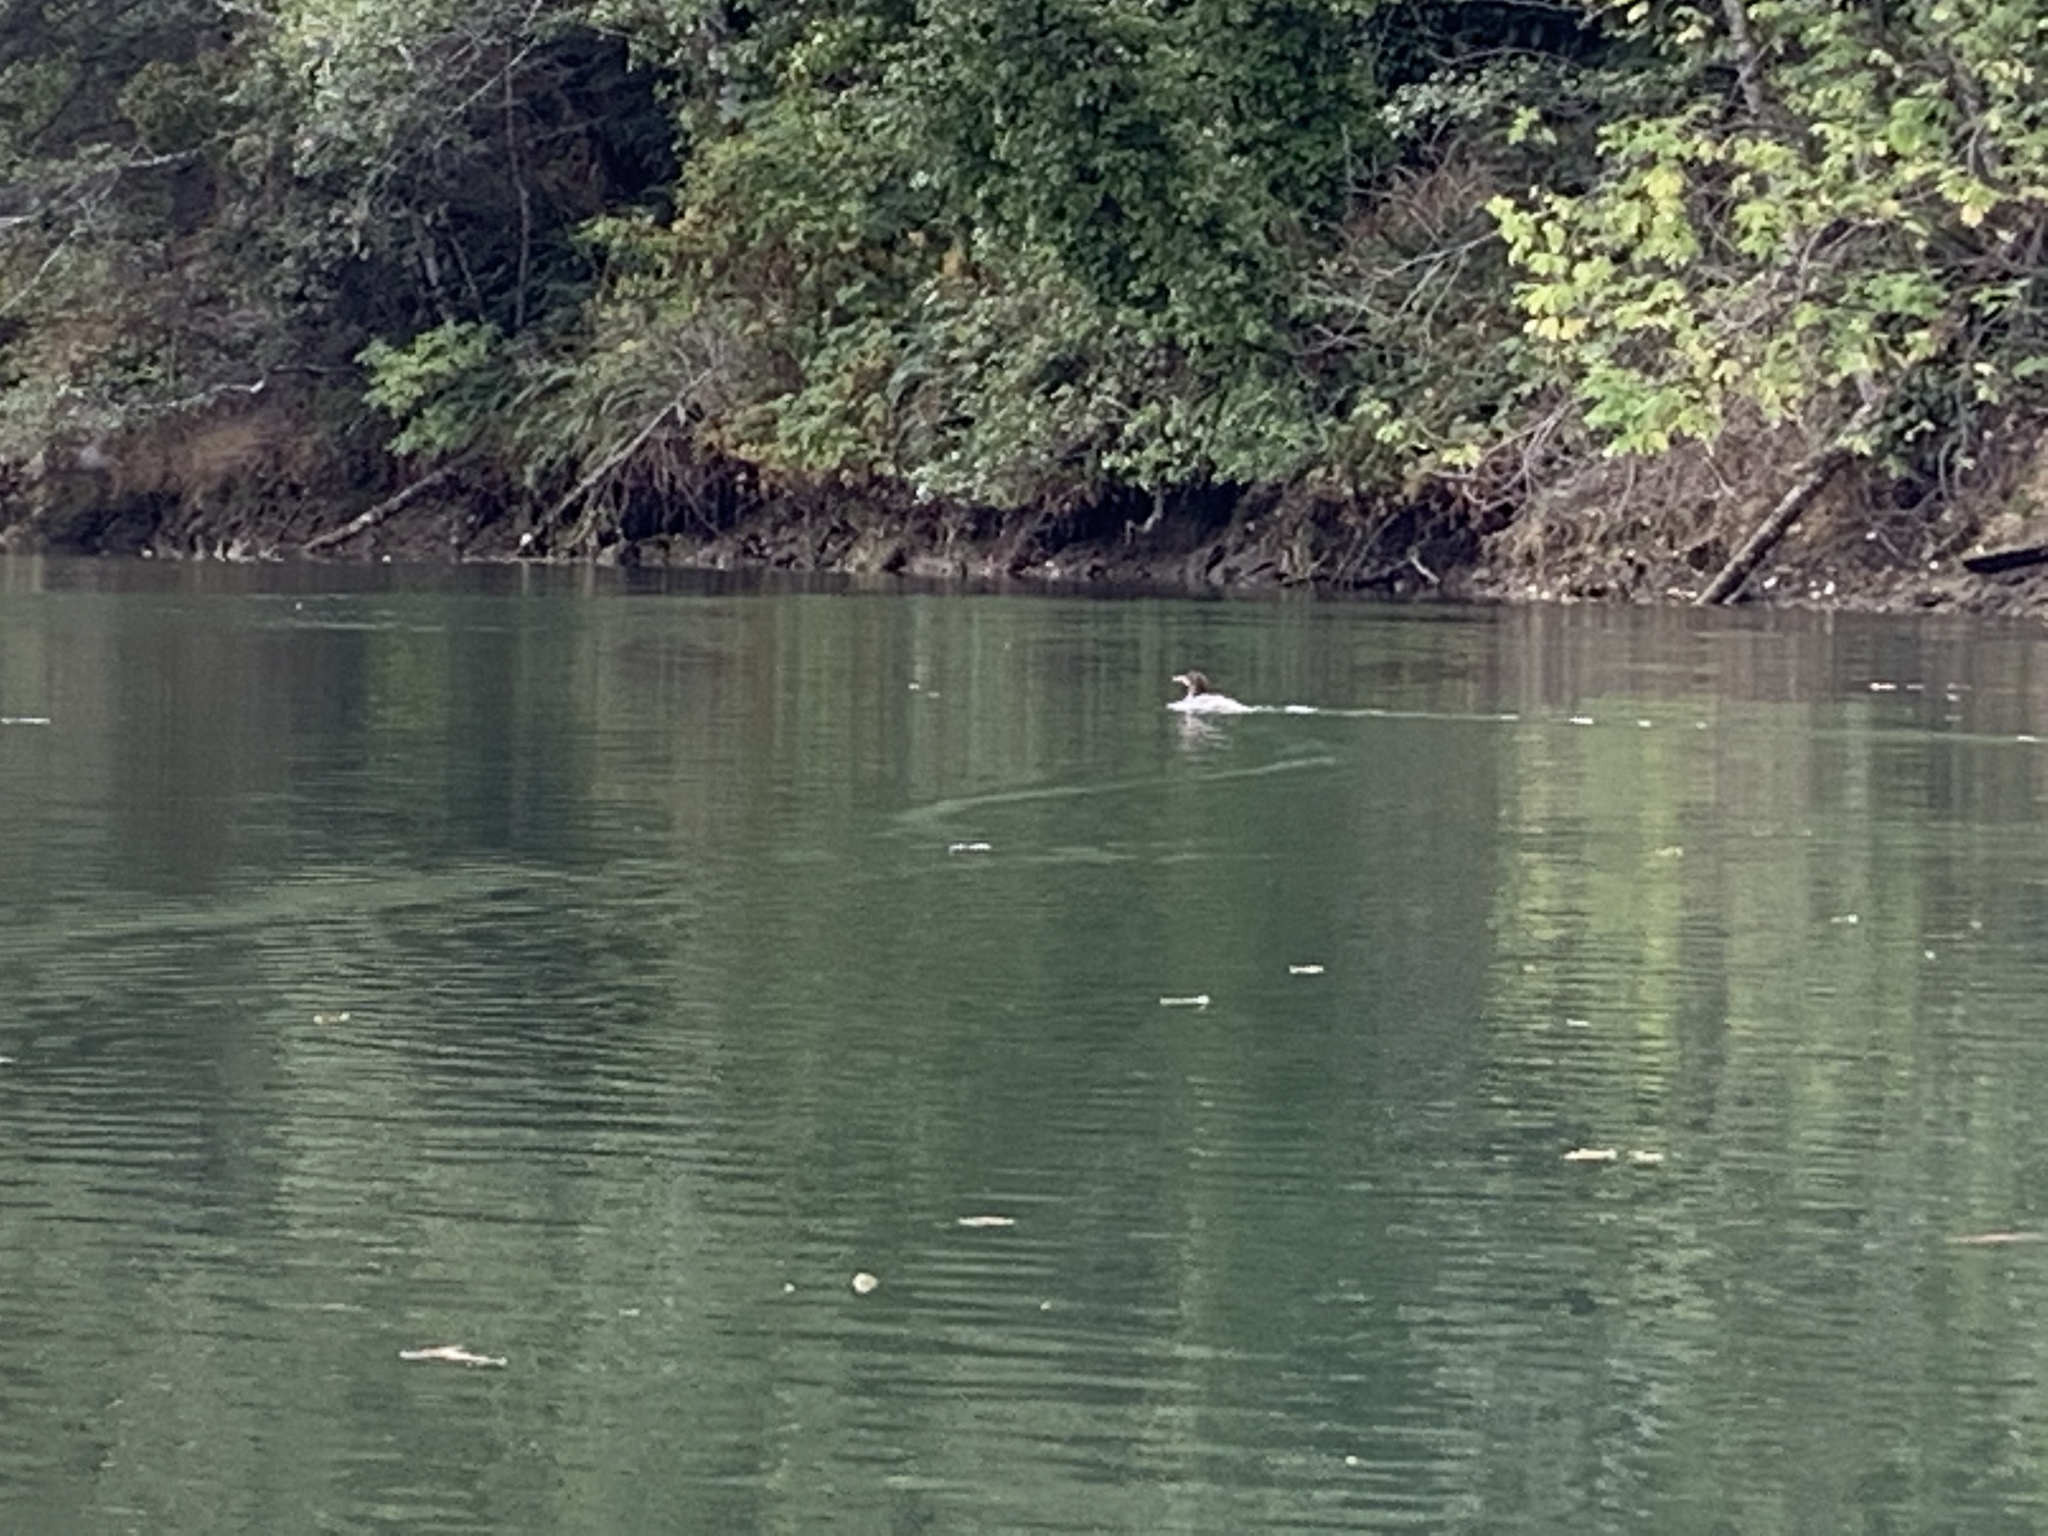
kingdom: Animalia
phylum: Chordata
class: Aves
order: Anseriformes
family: Anatidae
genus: Mergus
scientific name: Mergus merganser
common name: Common merganser
